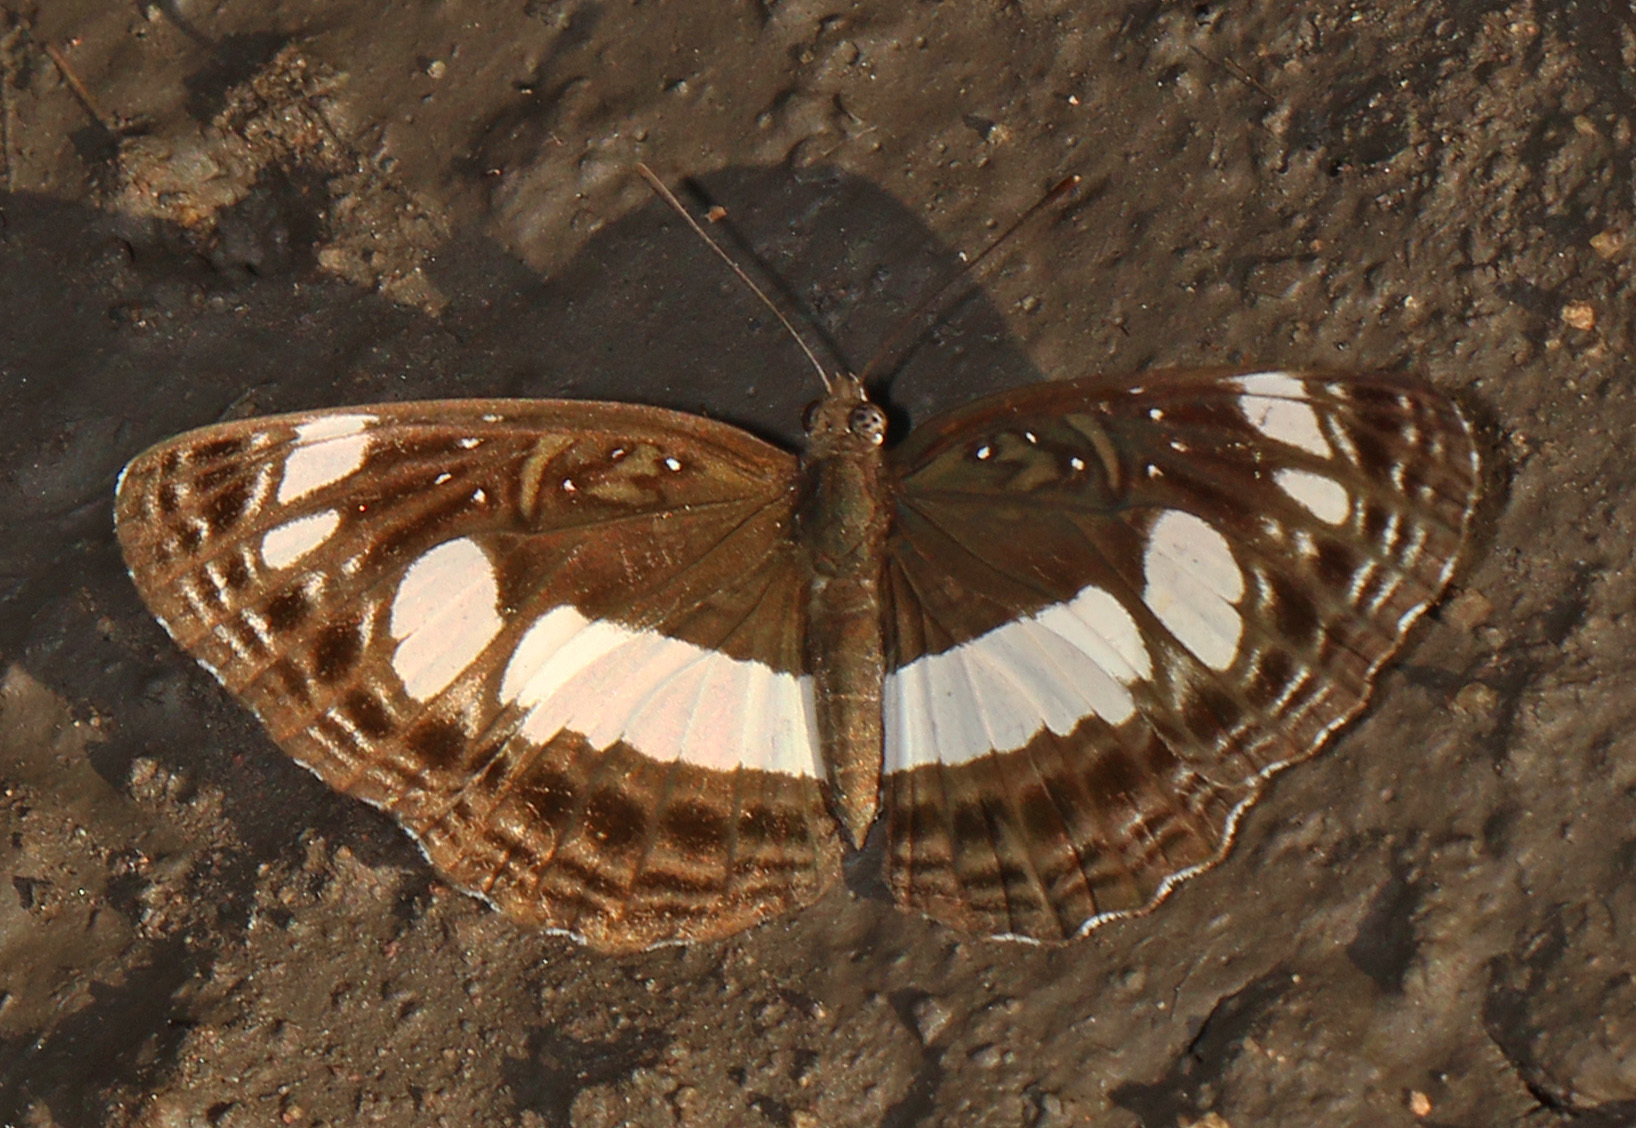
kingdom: Animalia
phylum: Arthropoda
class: Insecta
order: Lepidoptera
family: Nymphalidae
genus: Neptis
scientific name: Neptis saclava
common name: Small spotted sailor
